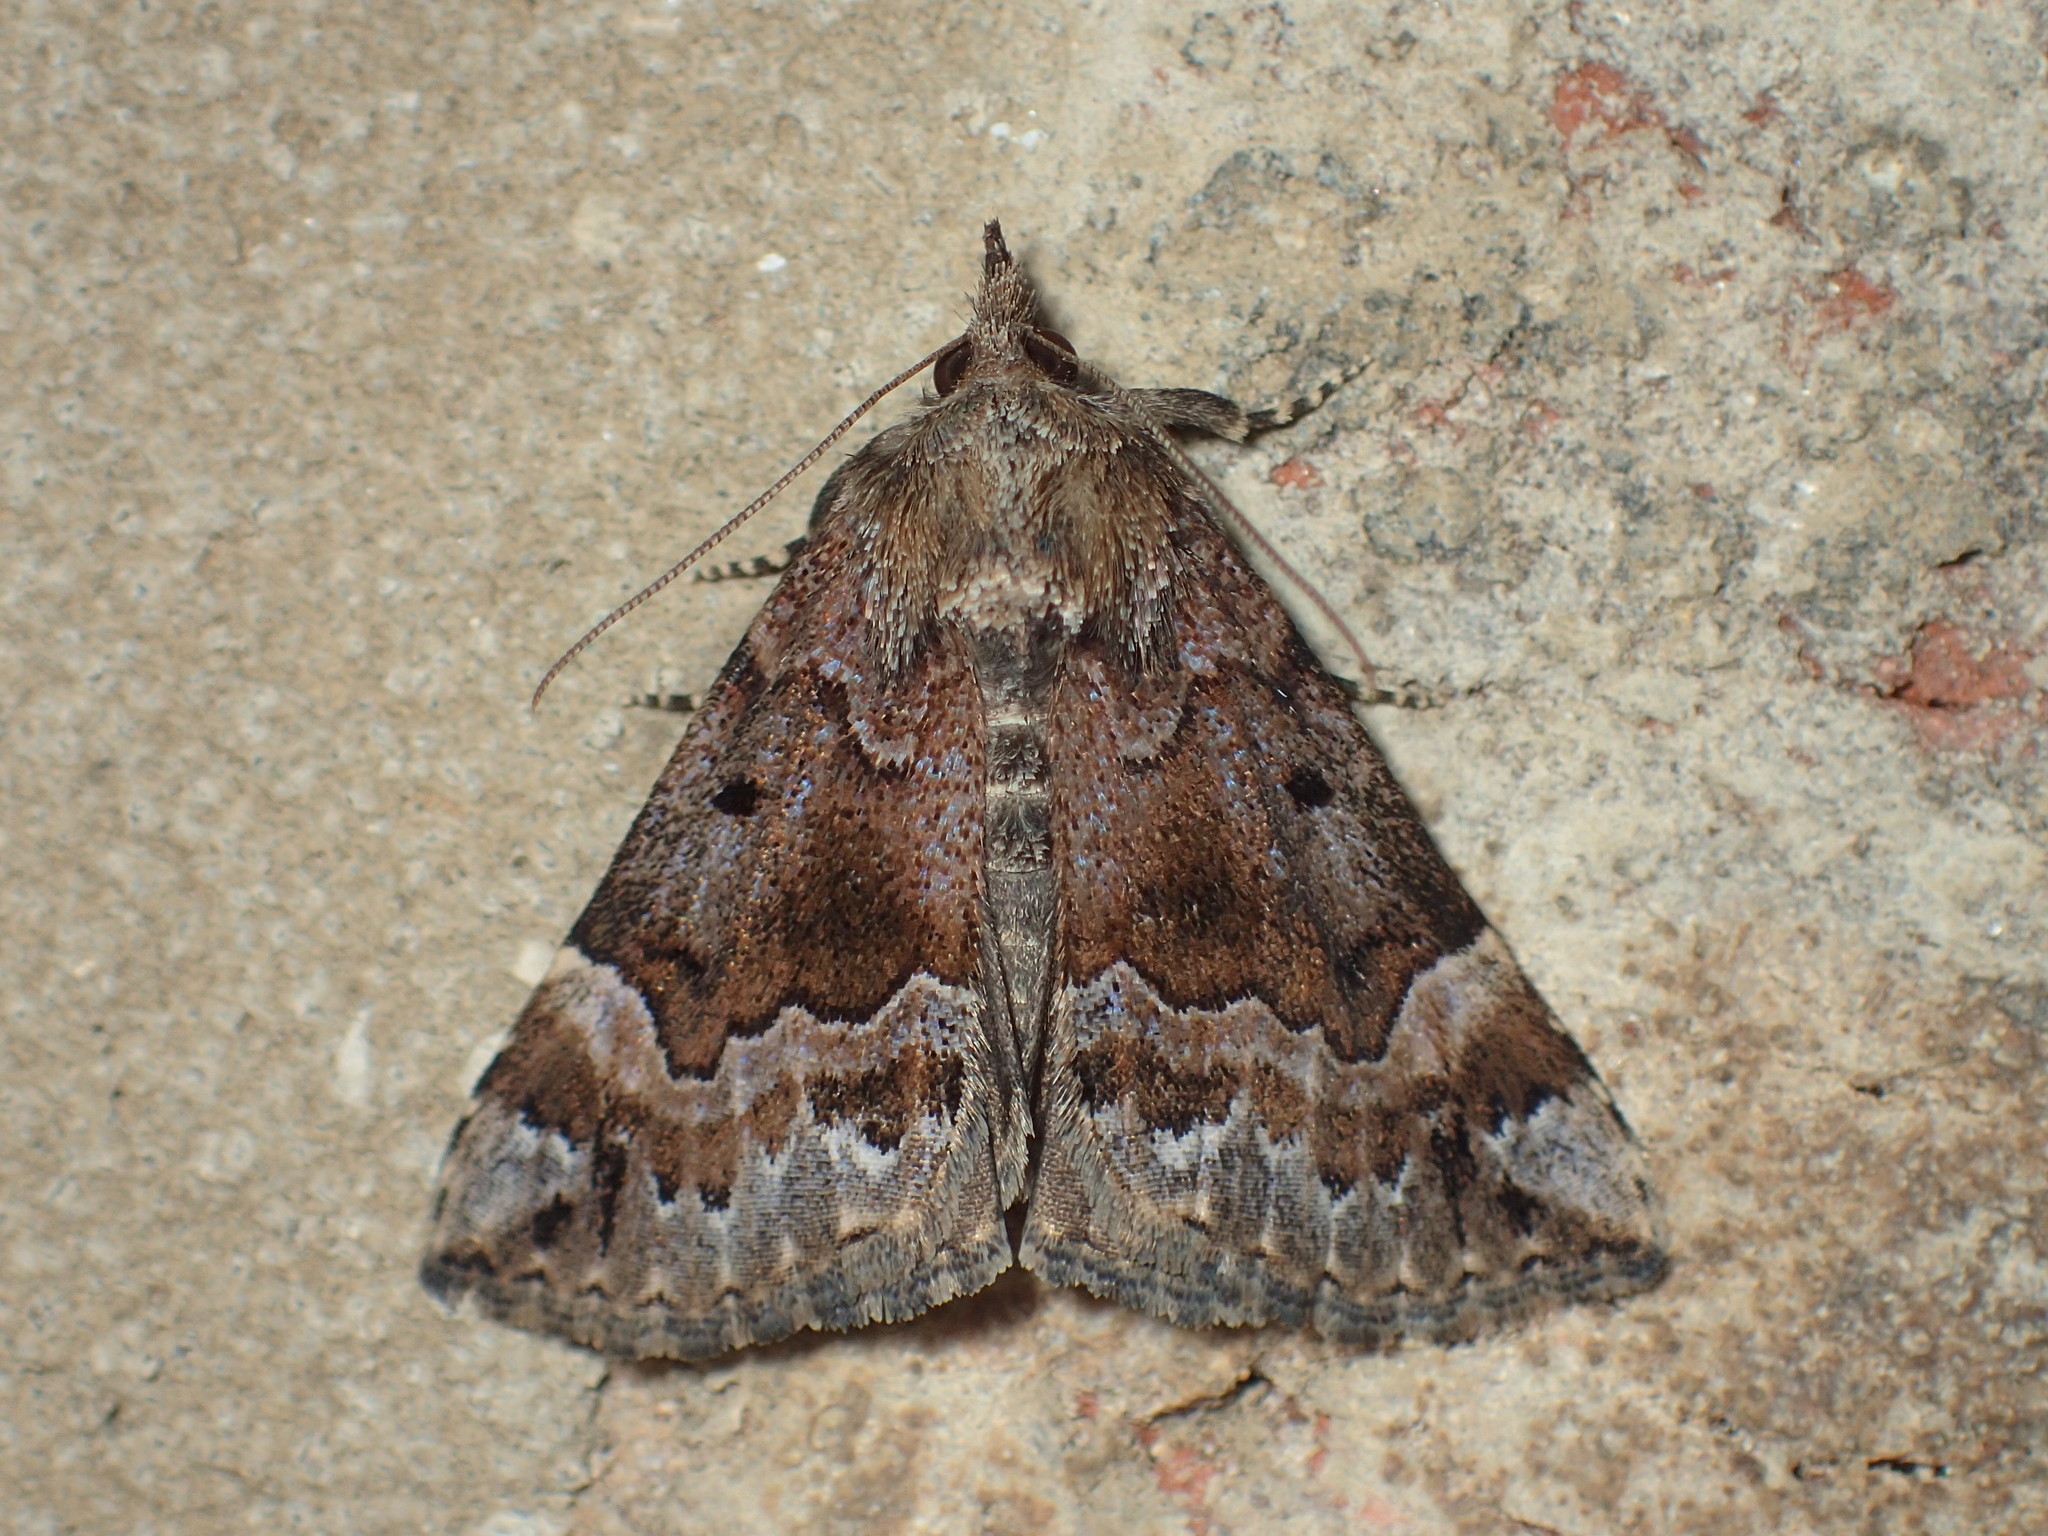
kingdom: Animalia
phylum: Arthropoda
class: Insecta
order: Lepidoptera
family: Erebidae
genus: Hypena
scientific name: Hypena palparia
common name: Mottled bomolocha moth
